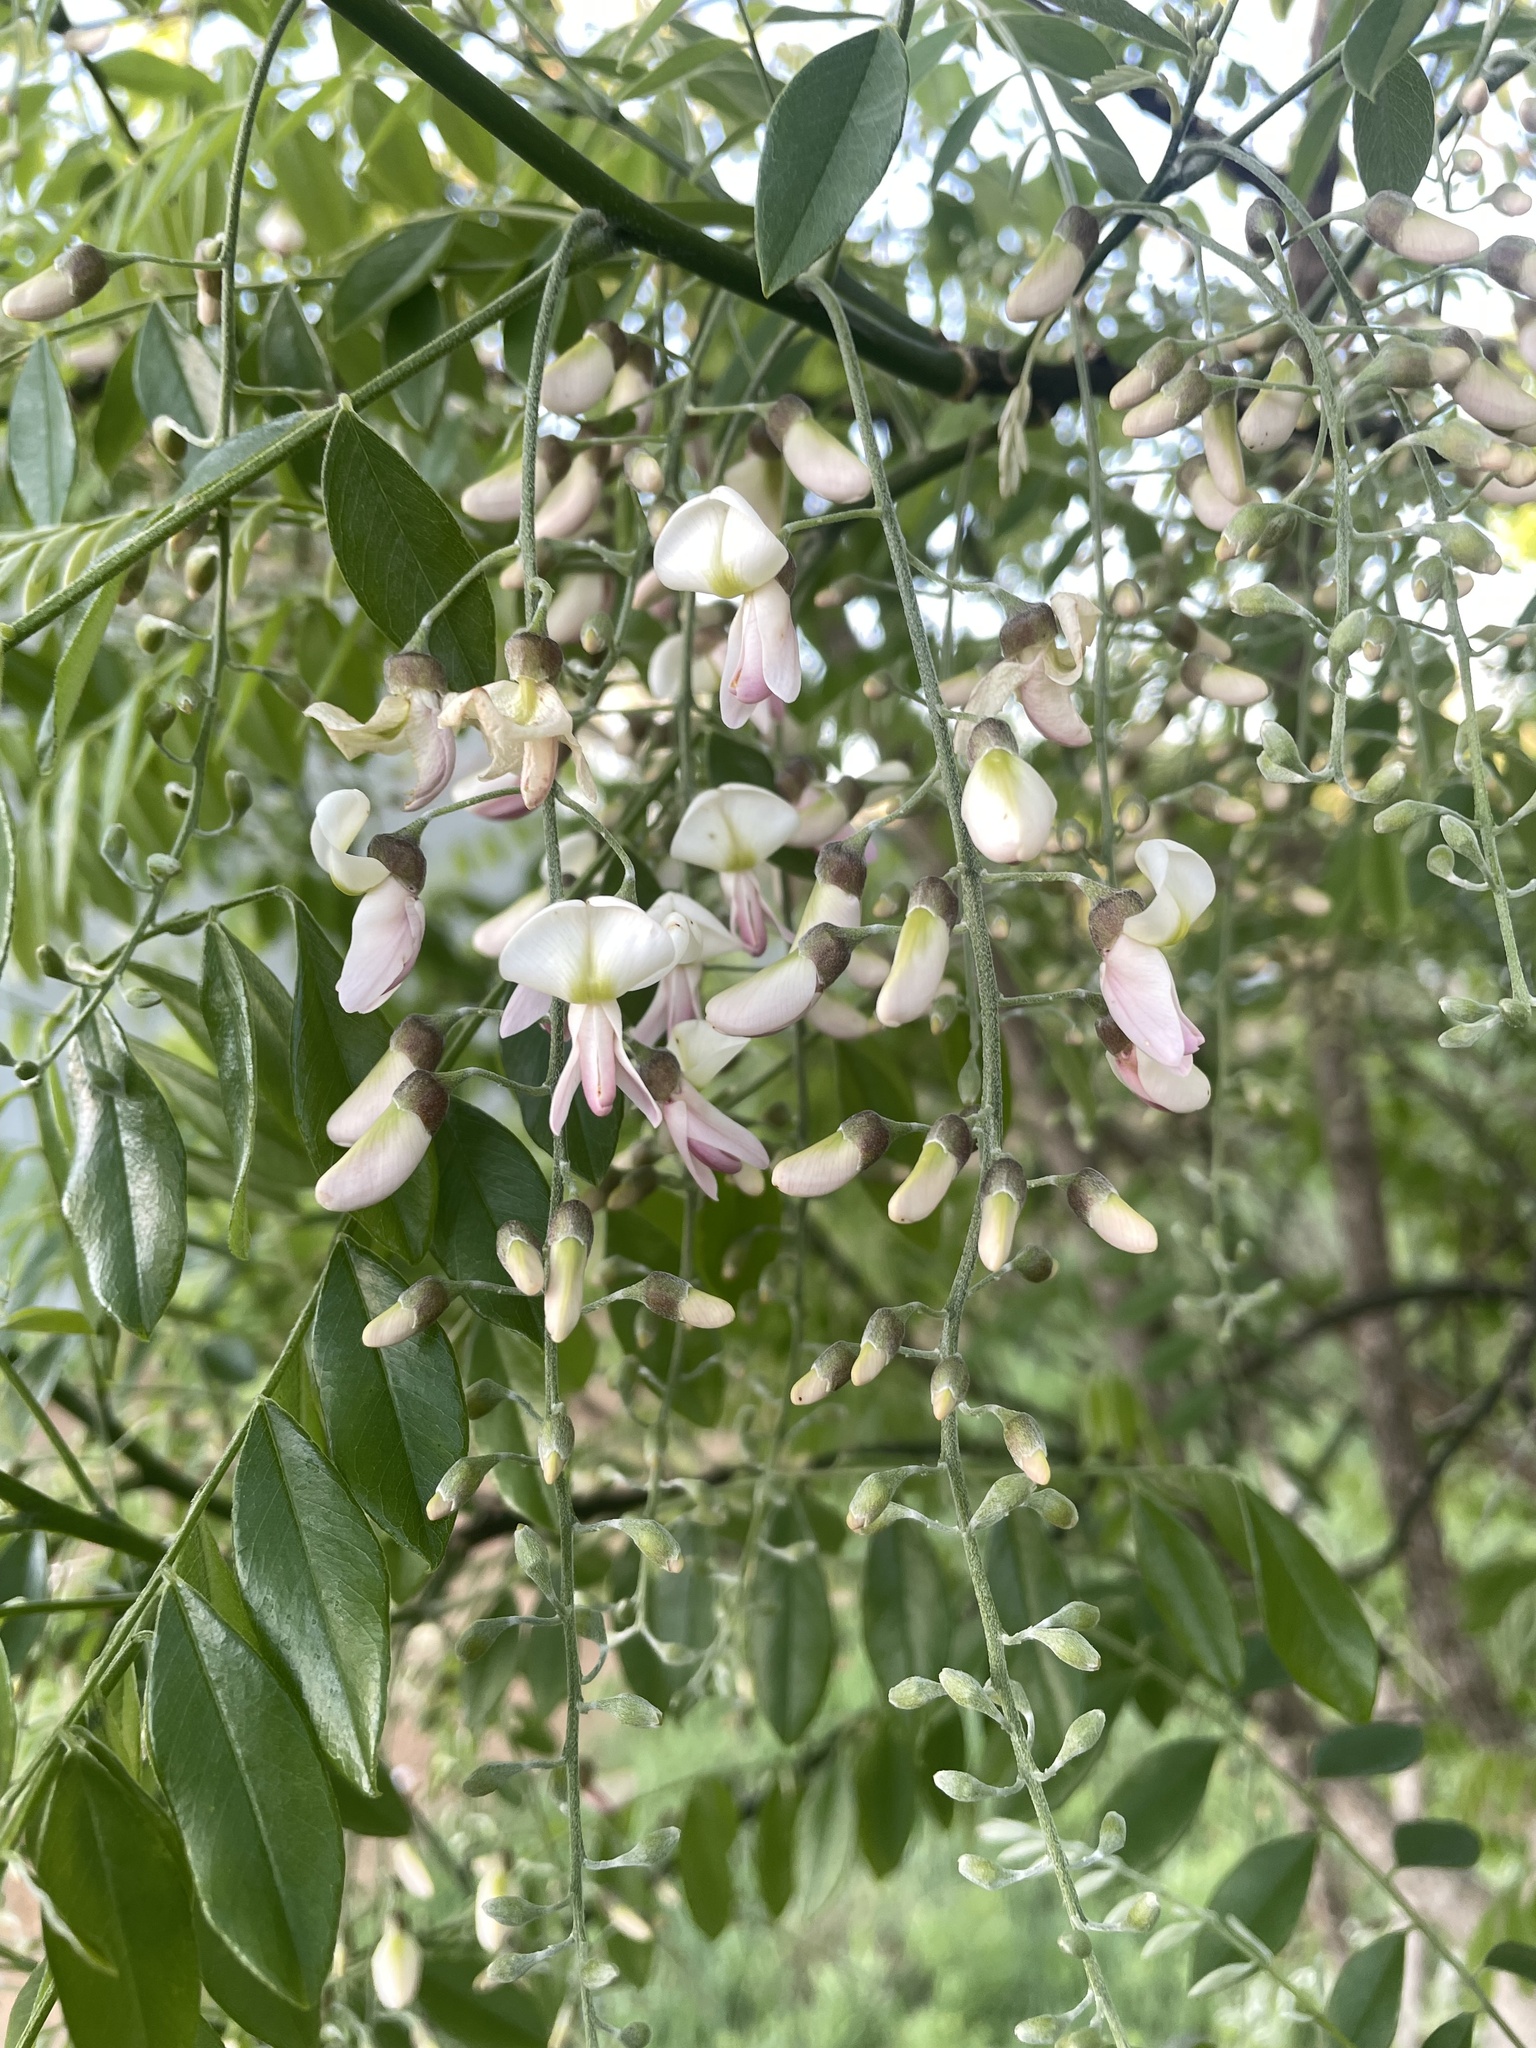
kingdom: Plantae
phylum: Tracheophyta
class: Magnoliopsida
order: Fabales
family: Fabaceae
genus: Styphnolobium
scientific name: Styphnolobium affine
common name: Texas sophora
